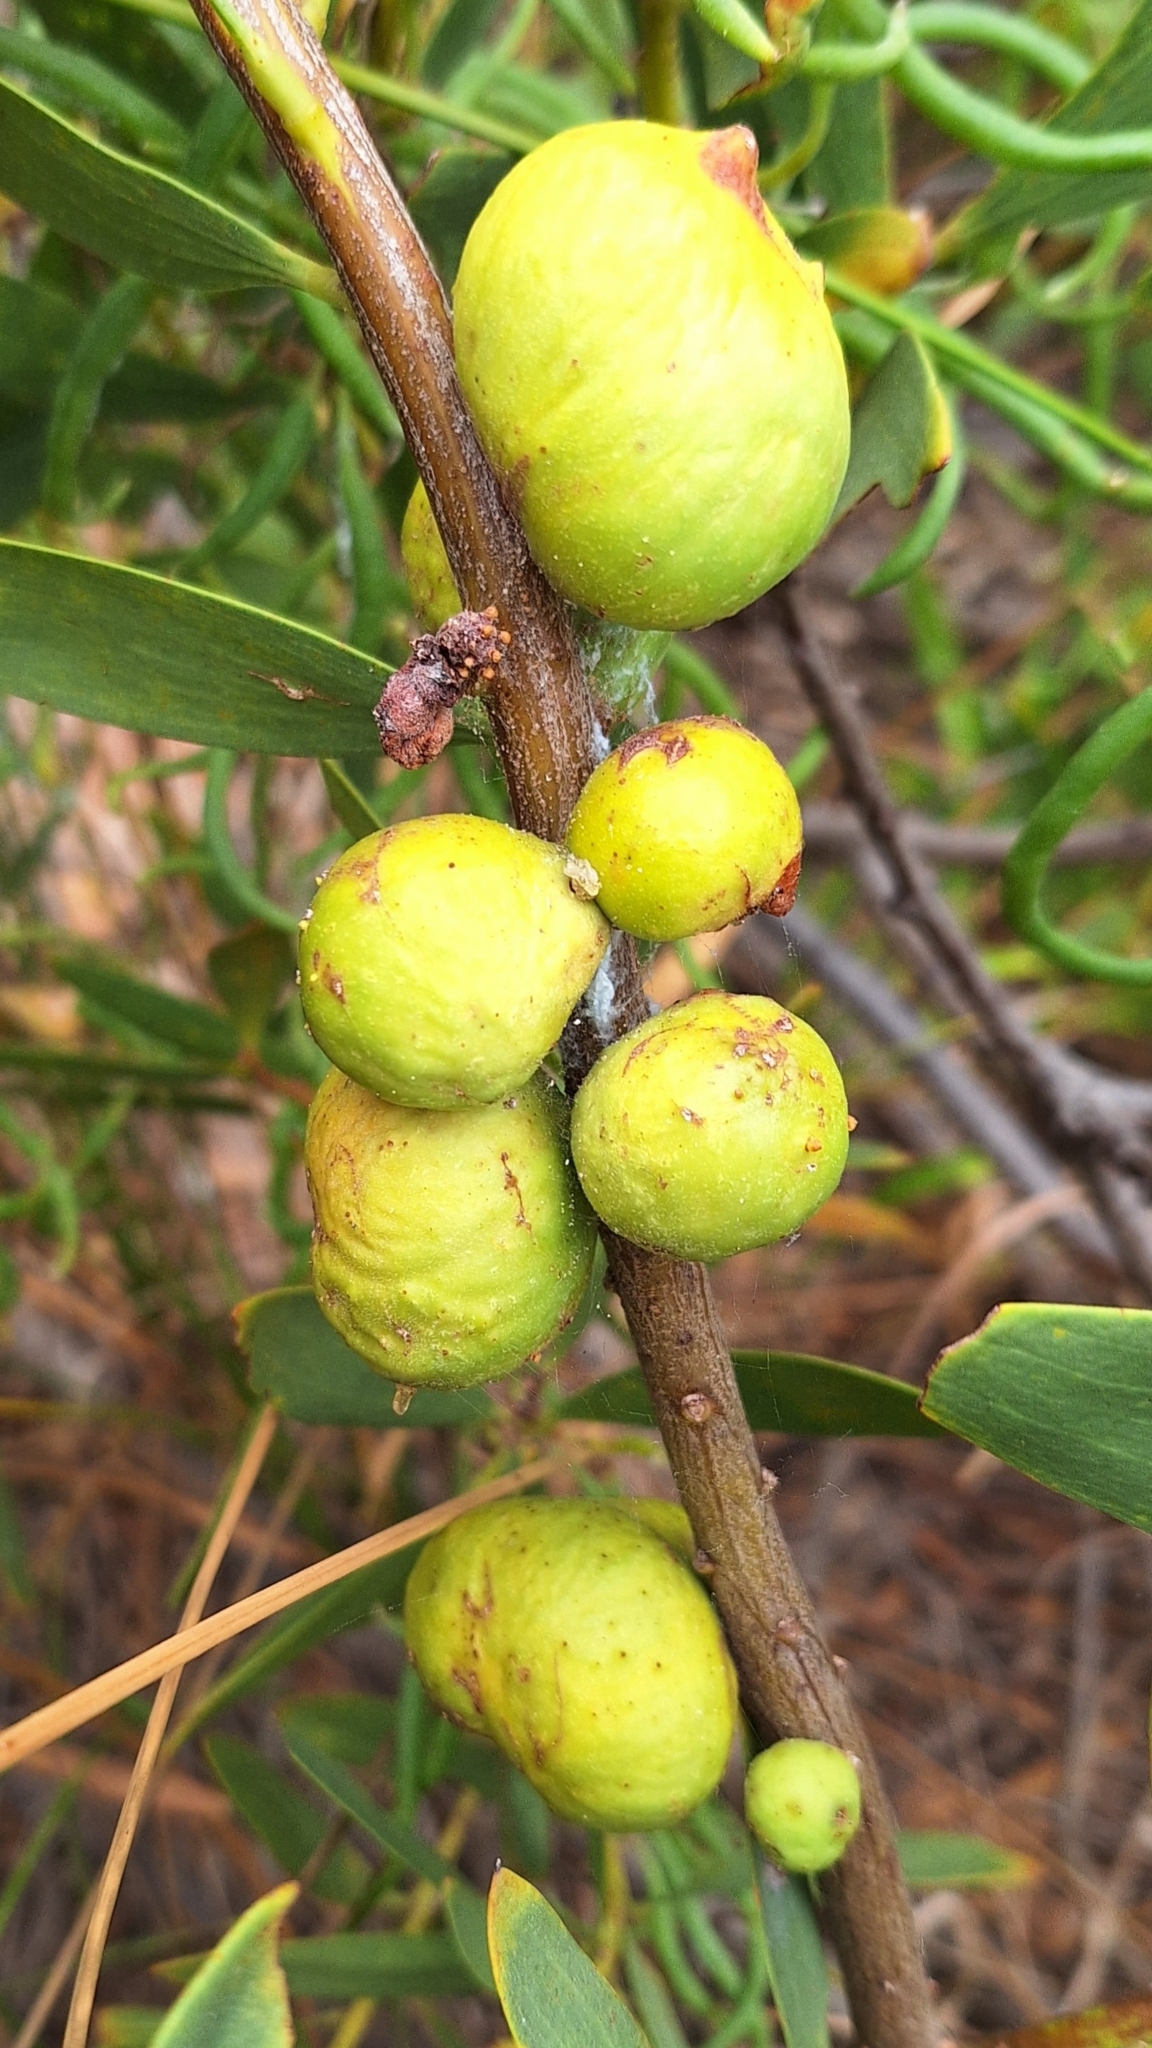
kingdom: Animalia
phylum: Arthropoda
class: Insecta
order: Hymenoptera
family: Pteromalidae
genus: Trichilogaster
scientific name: Trichilogaster acaciaelongifoliae
